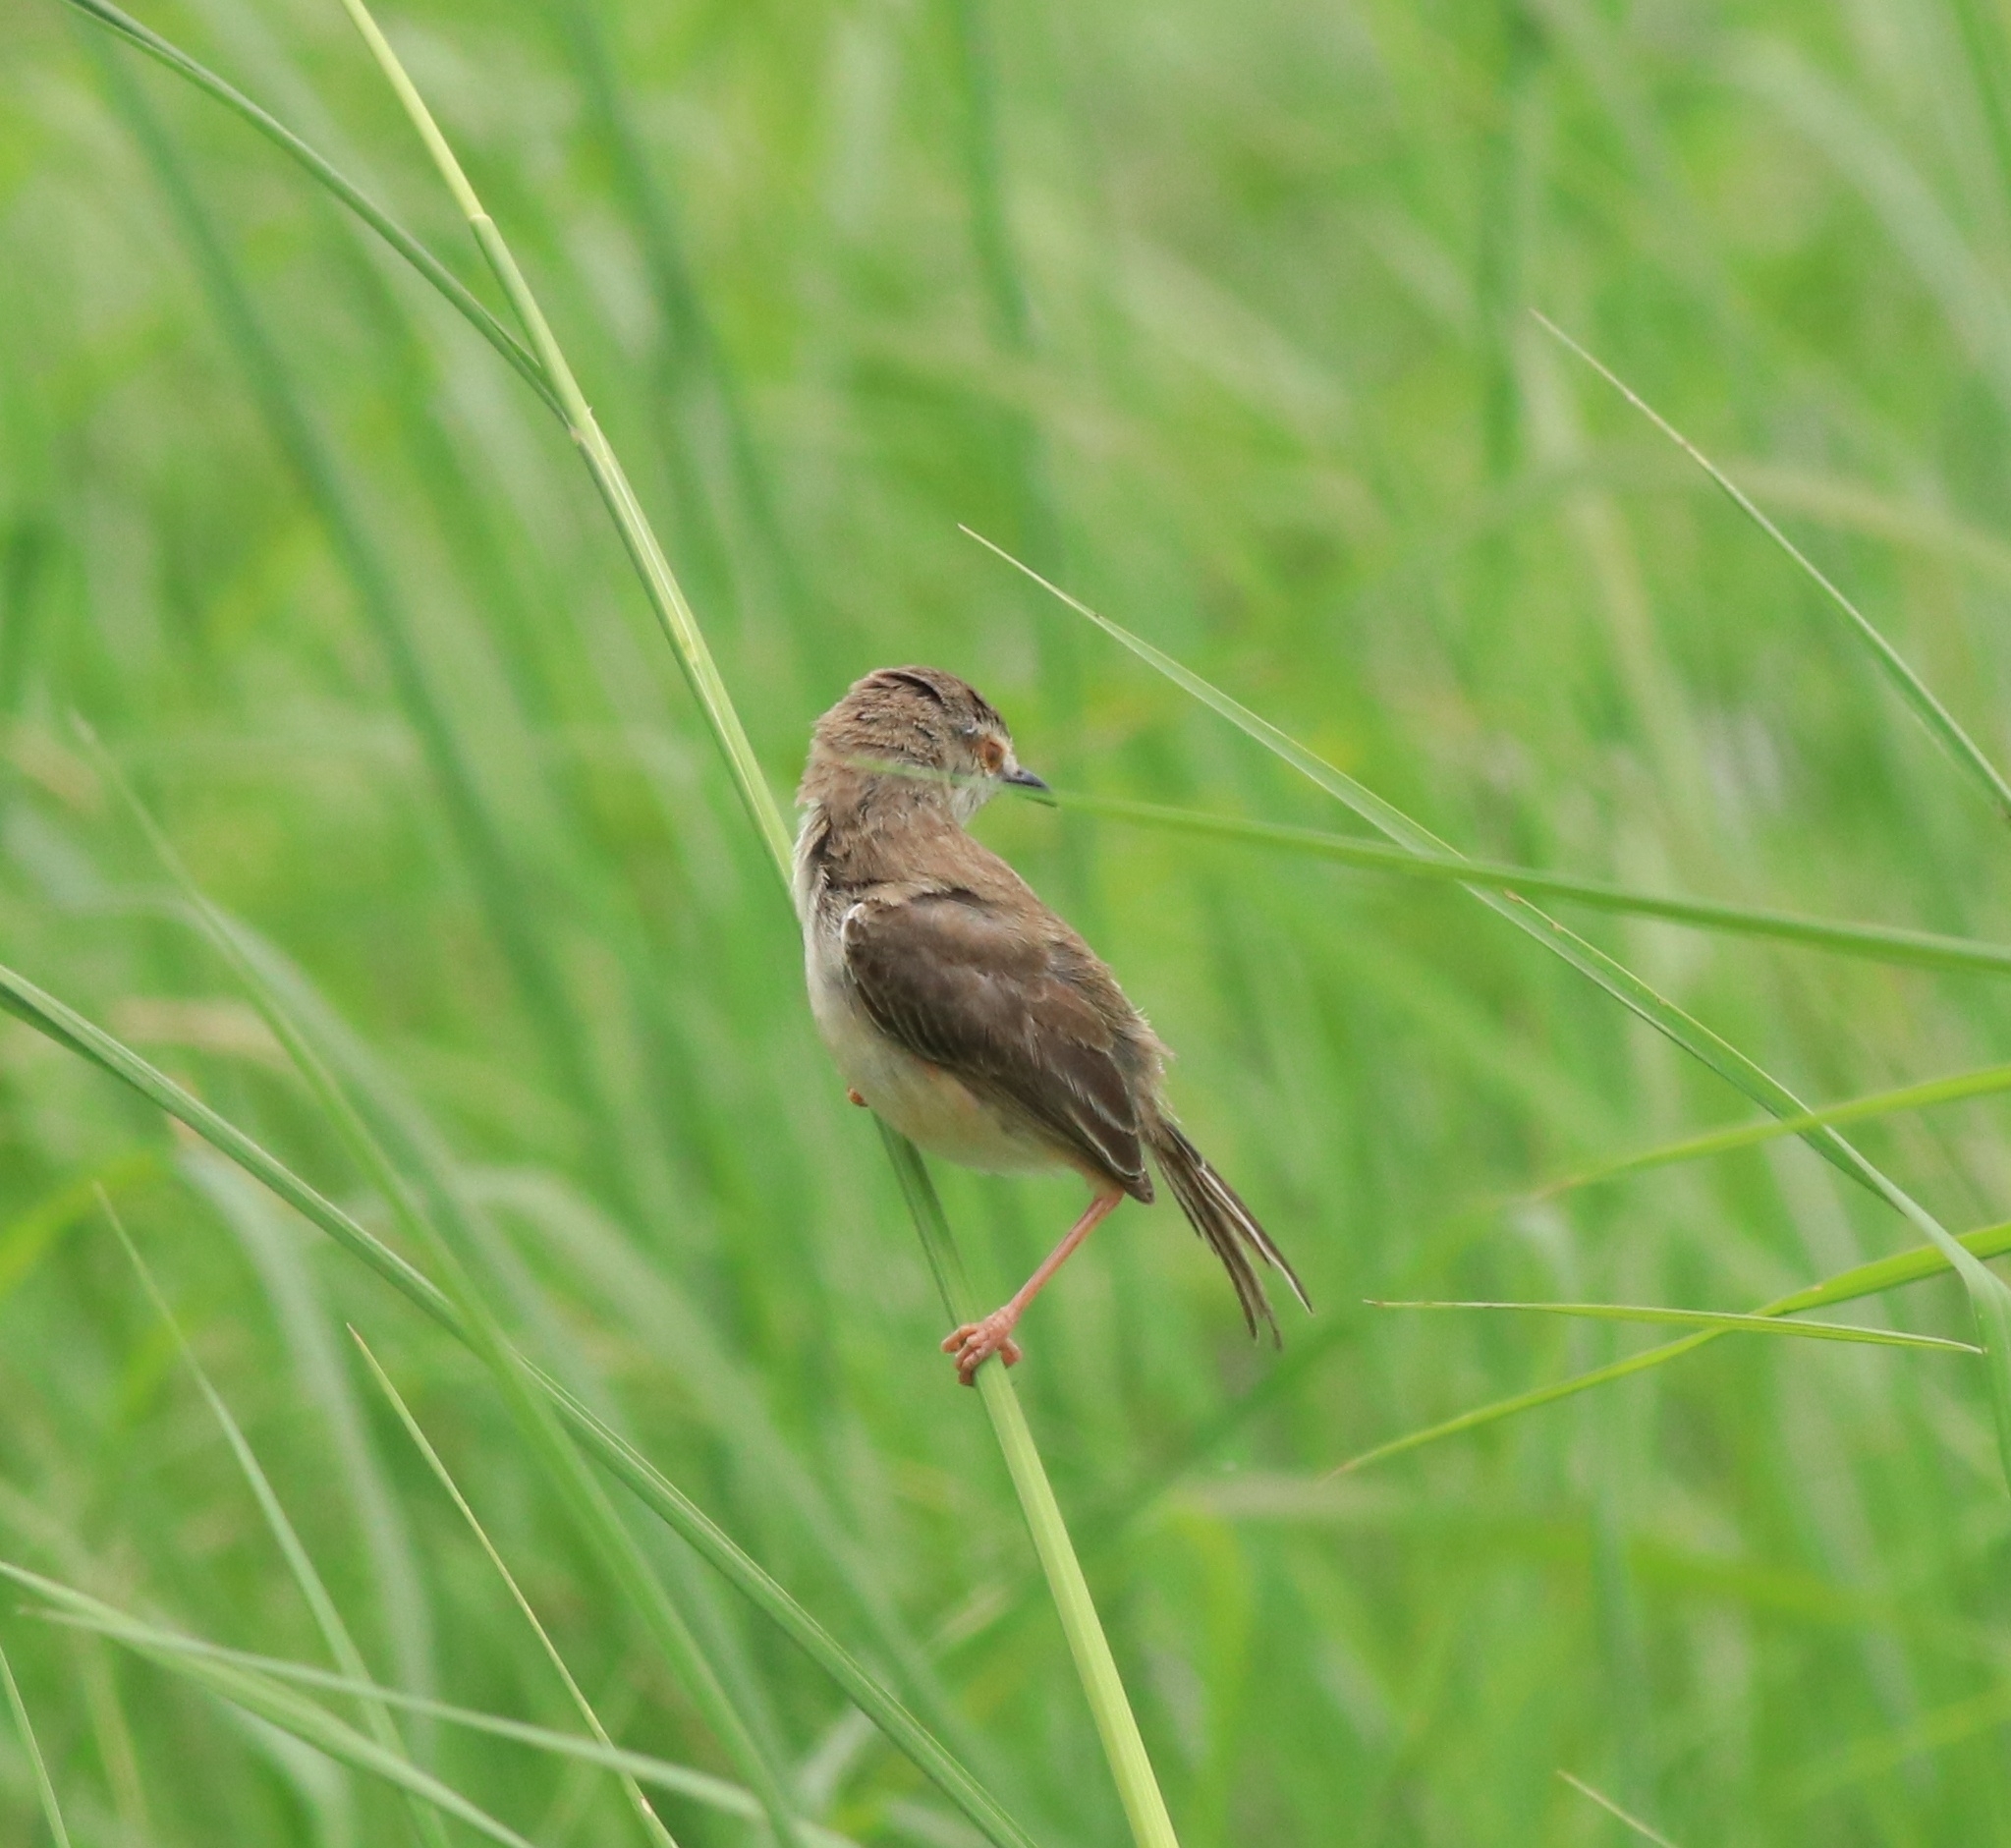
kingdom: Animalia
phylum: Chordata
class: Aves
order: Passeriformes
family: Cisticolidae
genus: Prinia
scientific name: Prinia inornata
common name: Plain prinia
